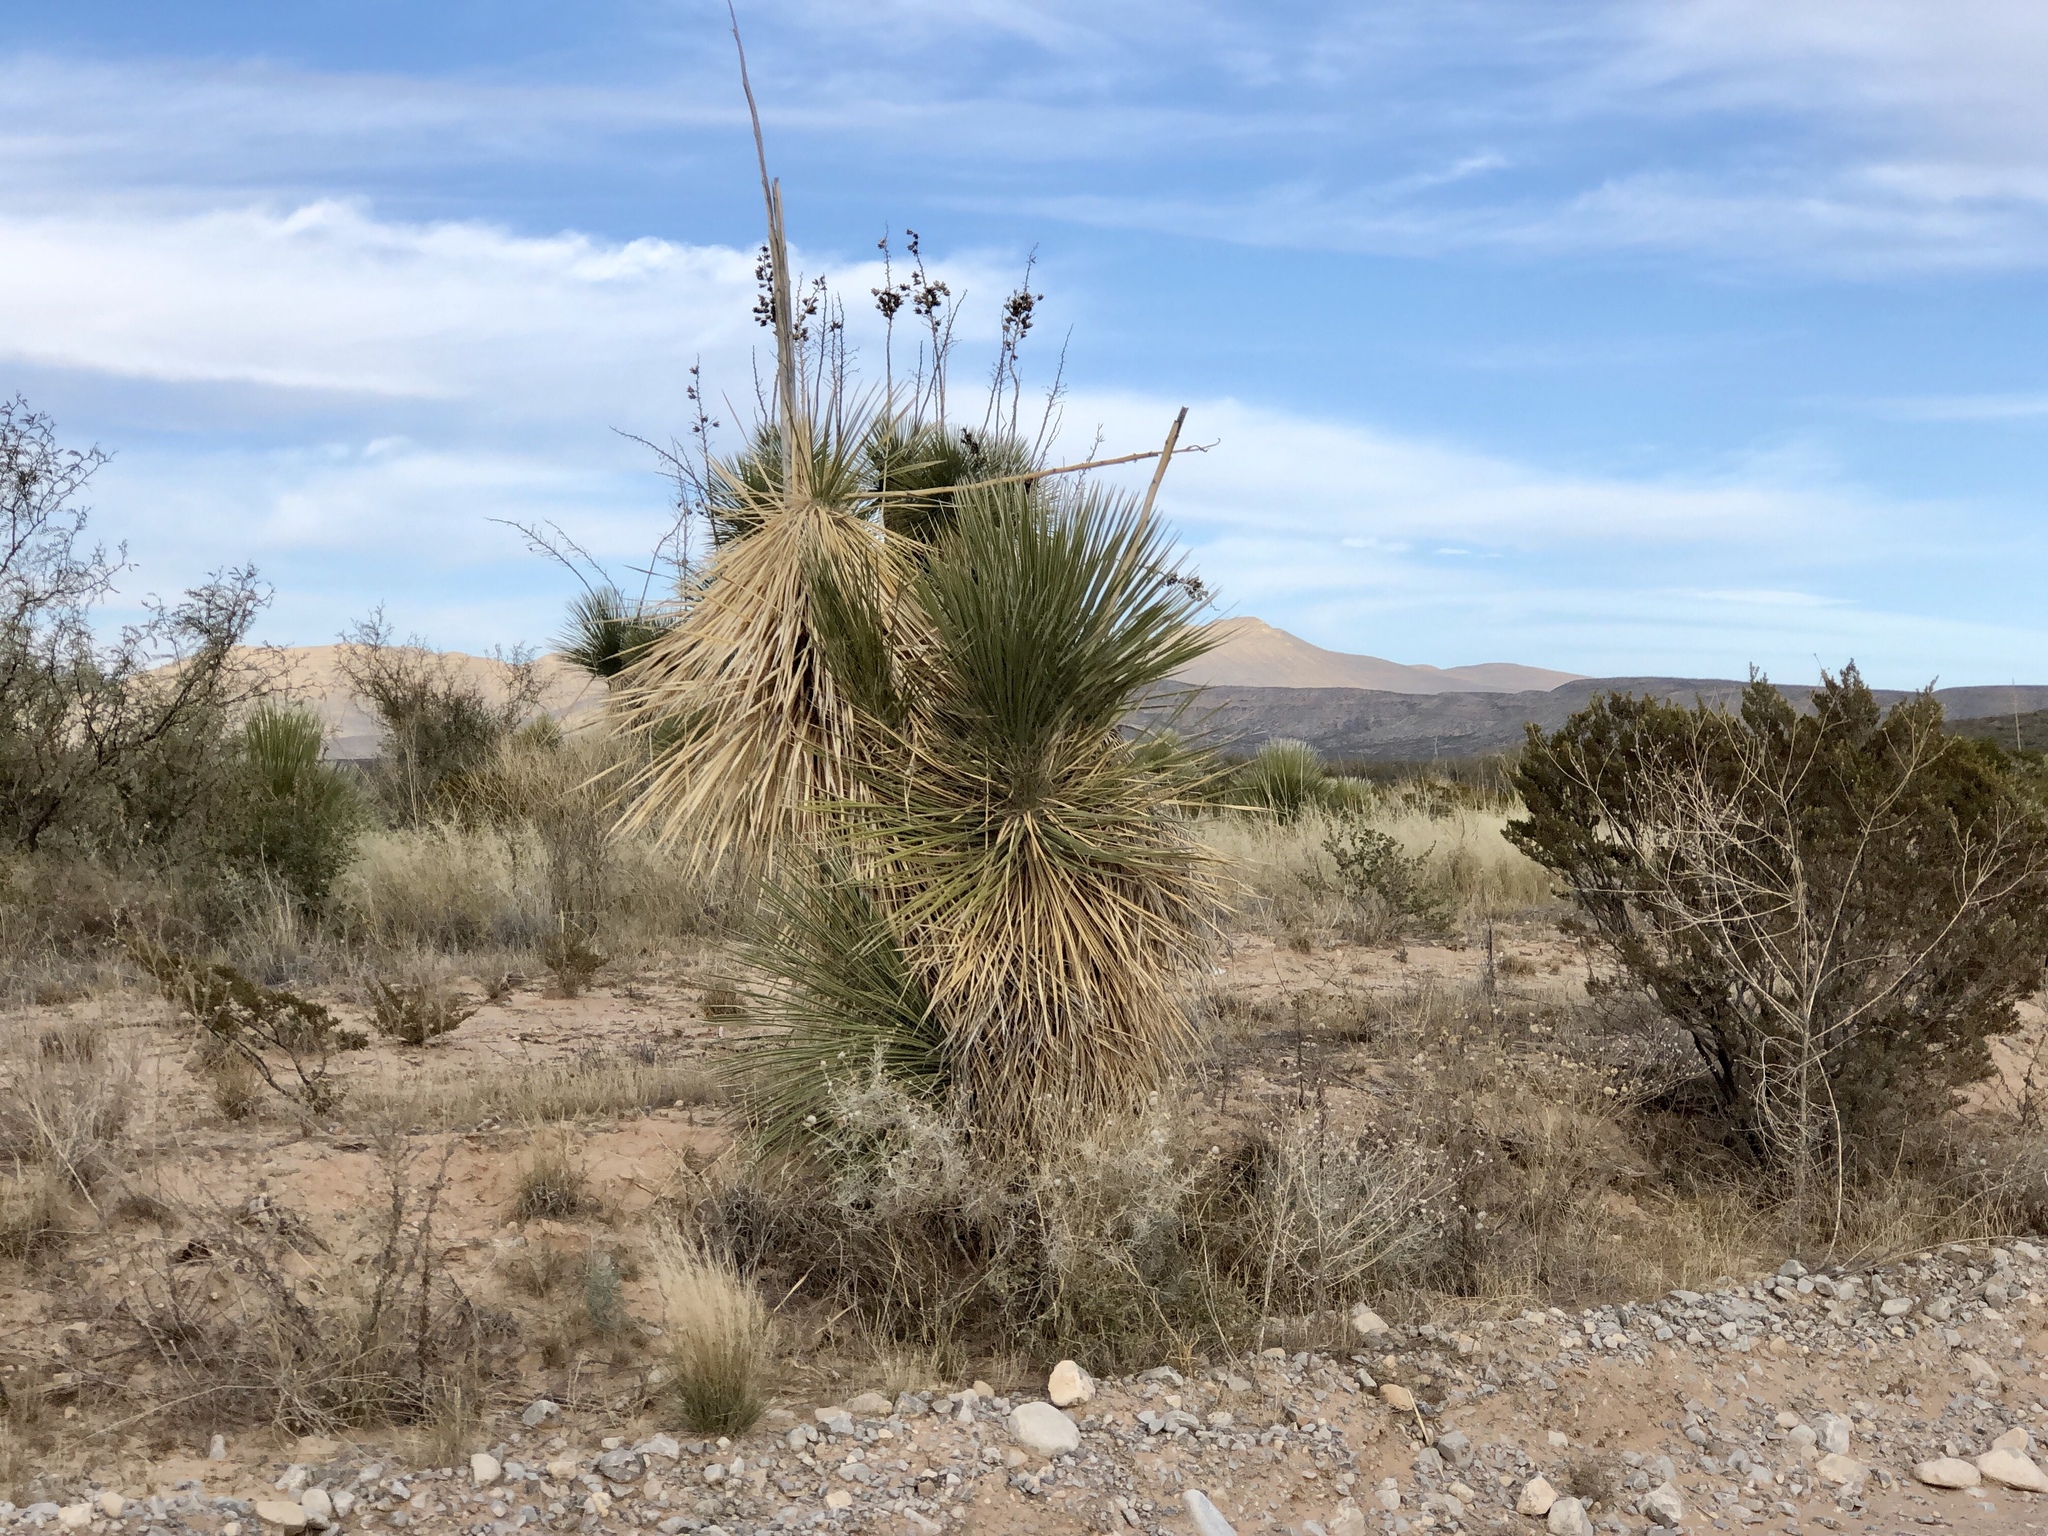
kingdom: Plantae
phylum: Tracheophyta
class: Liliopsida
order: Asparagales
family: Asparagaceae
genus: Yucca
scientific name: Yucca elata
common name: Palmella
